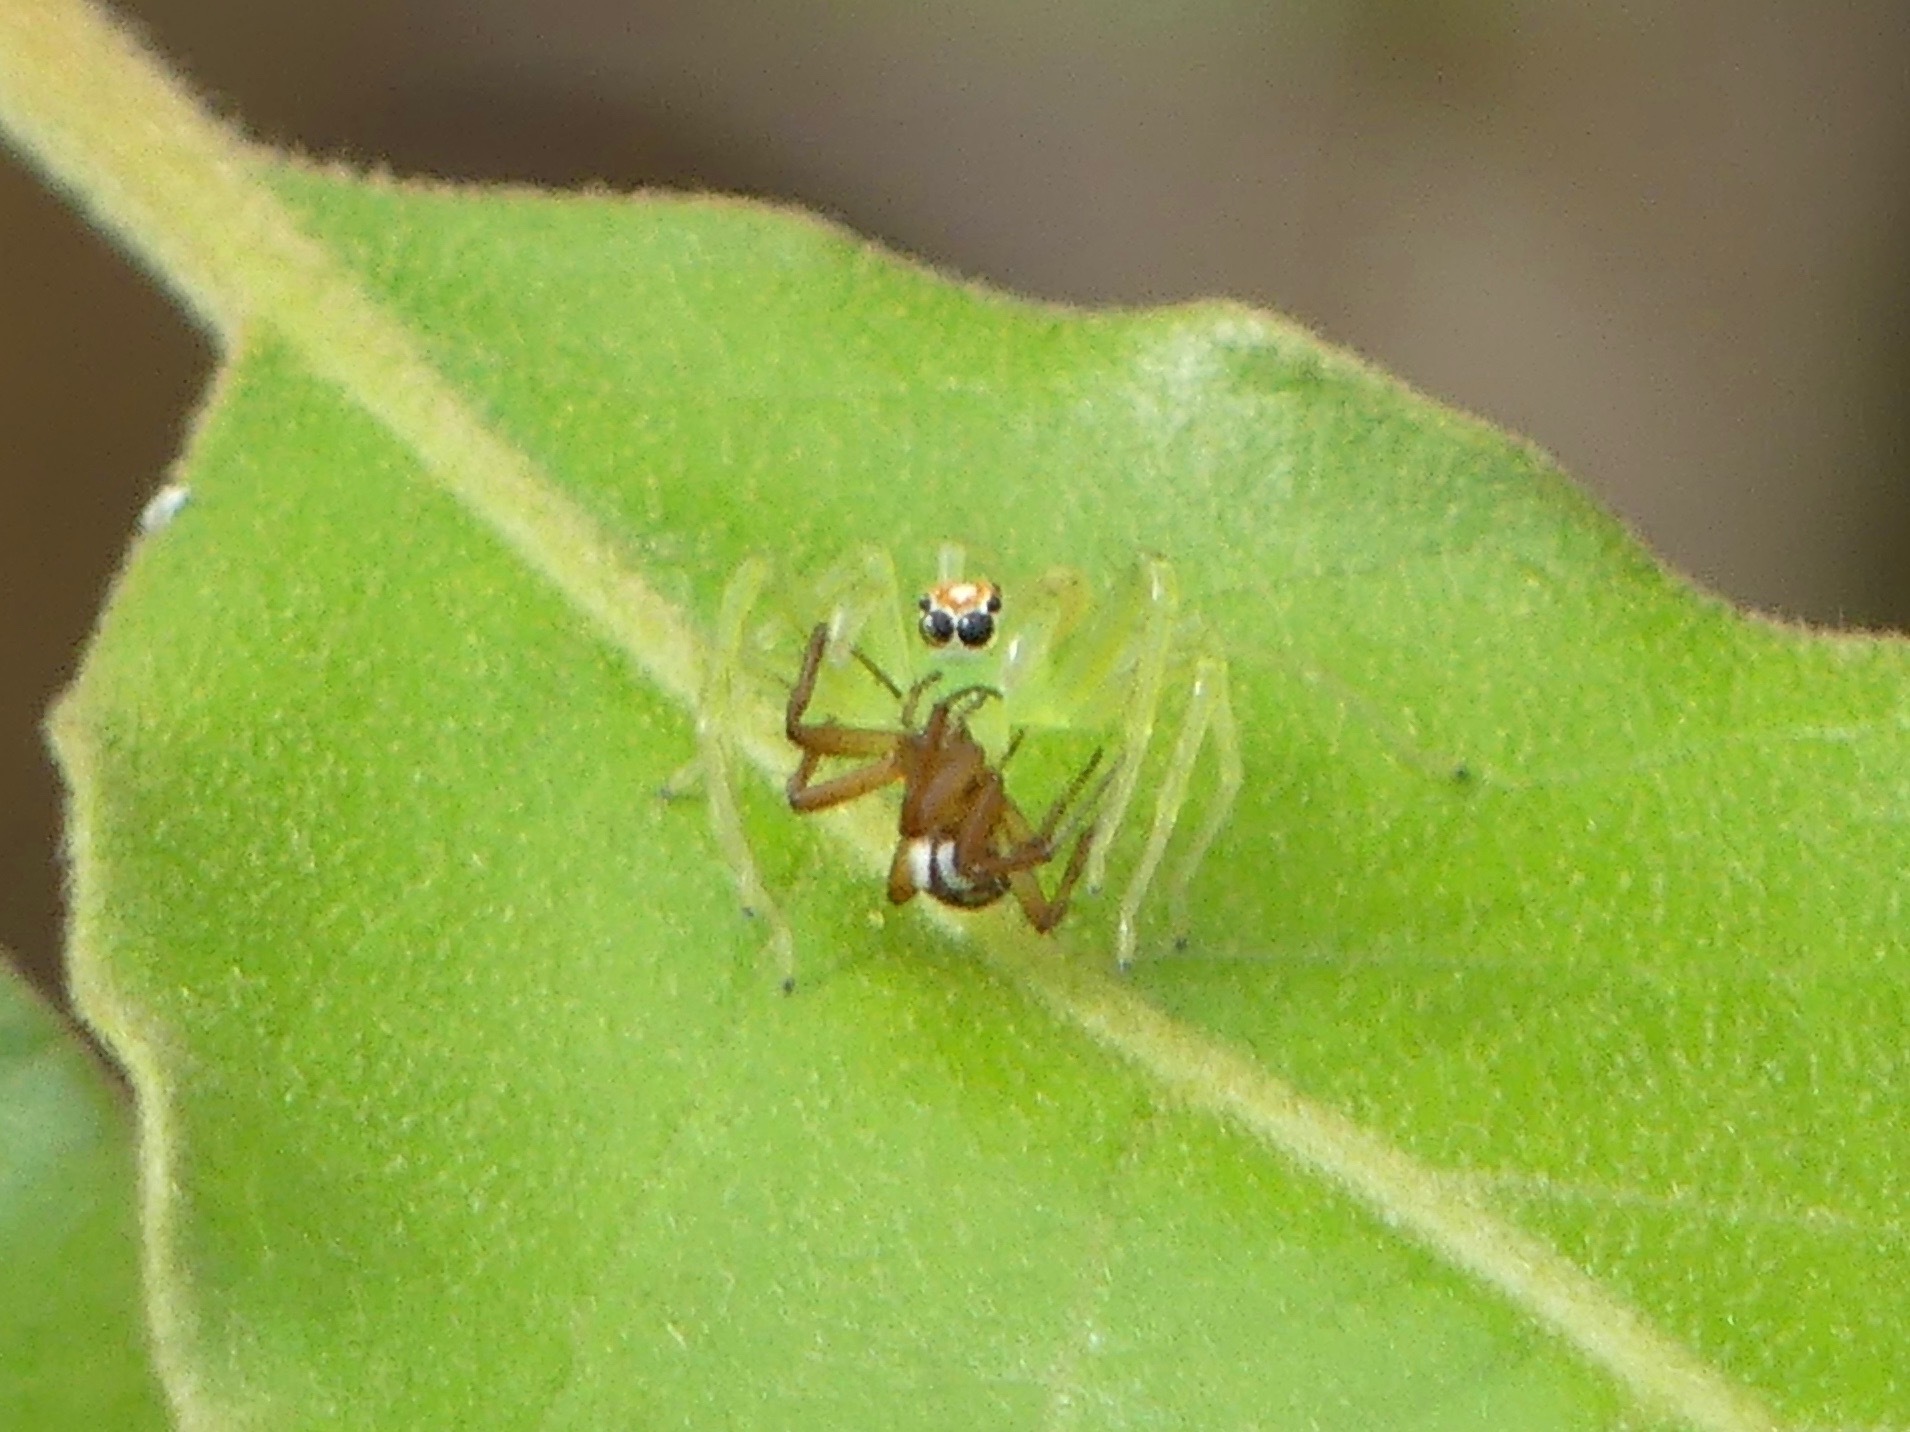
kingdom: Animalia
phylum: Arthropoda
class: Arachnida
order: Araneae
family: Salticidae
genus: Lyssomanes
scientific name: Lyssomanes viridis
